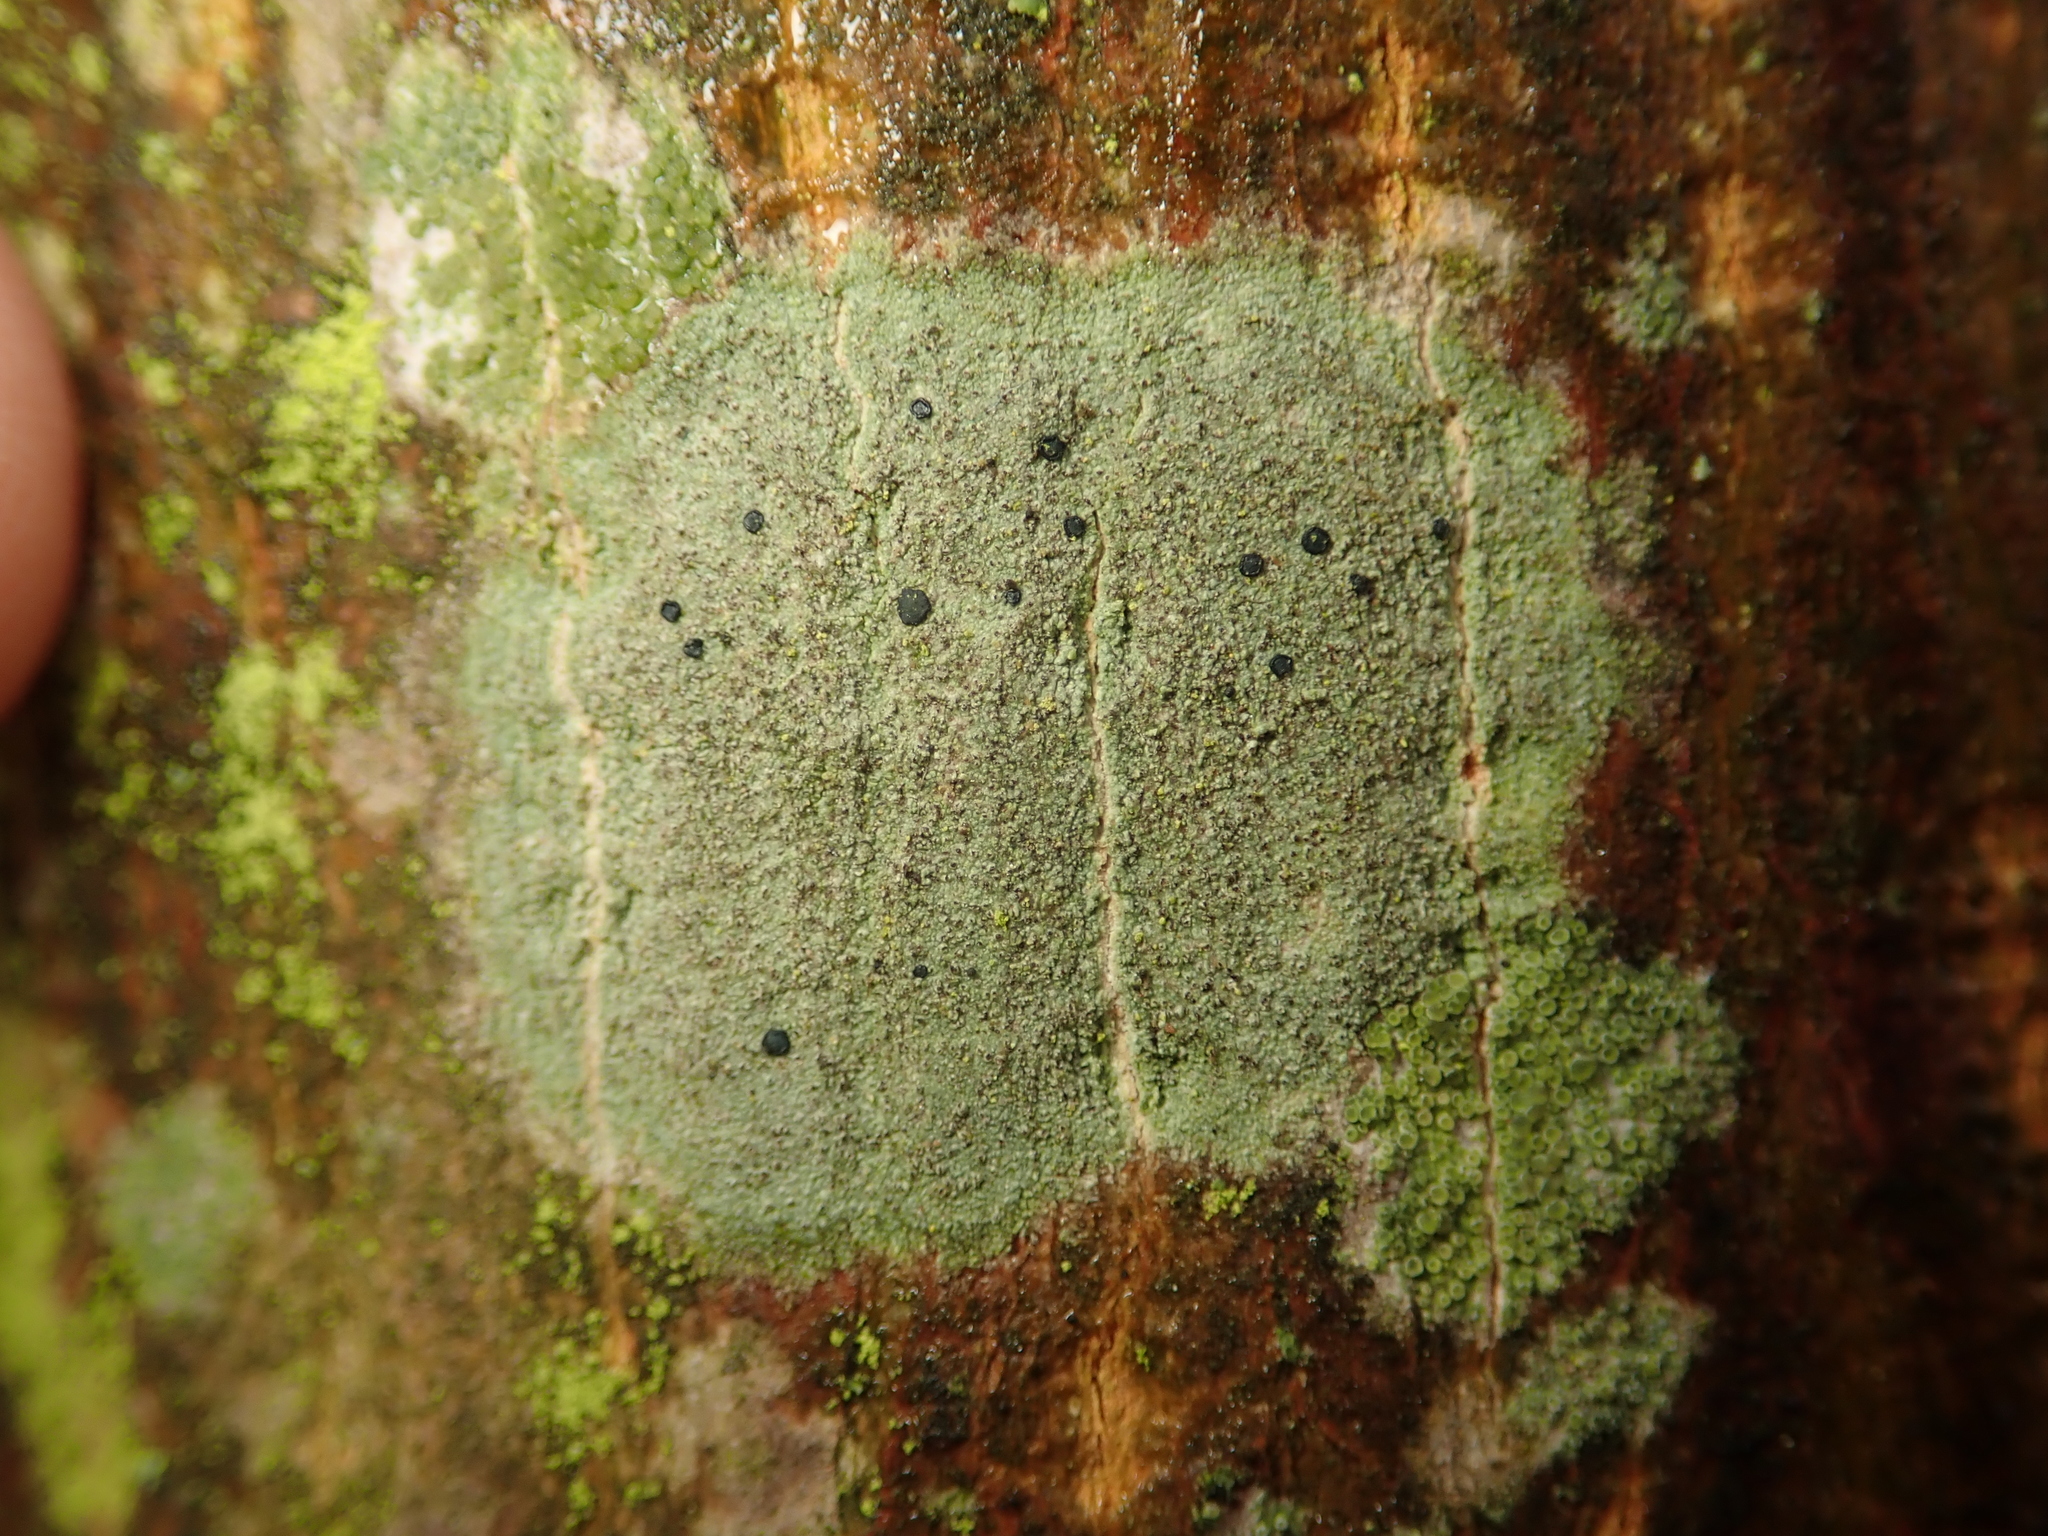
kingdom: Fungi
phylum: Ascomycota
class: Lecanoromycetes
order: Lecanorales
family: Lecanoraceae
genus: Lecidella
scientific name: Lecidella elaeochroma
